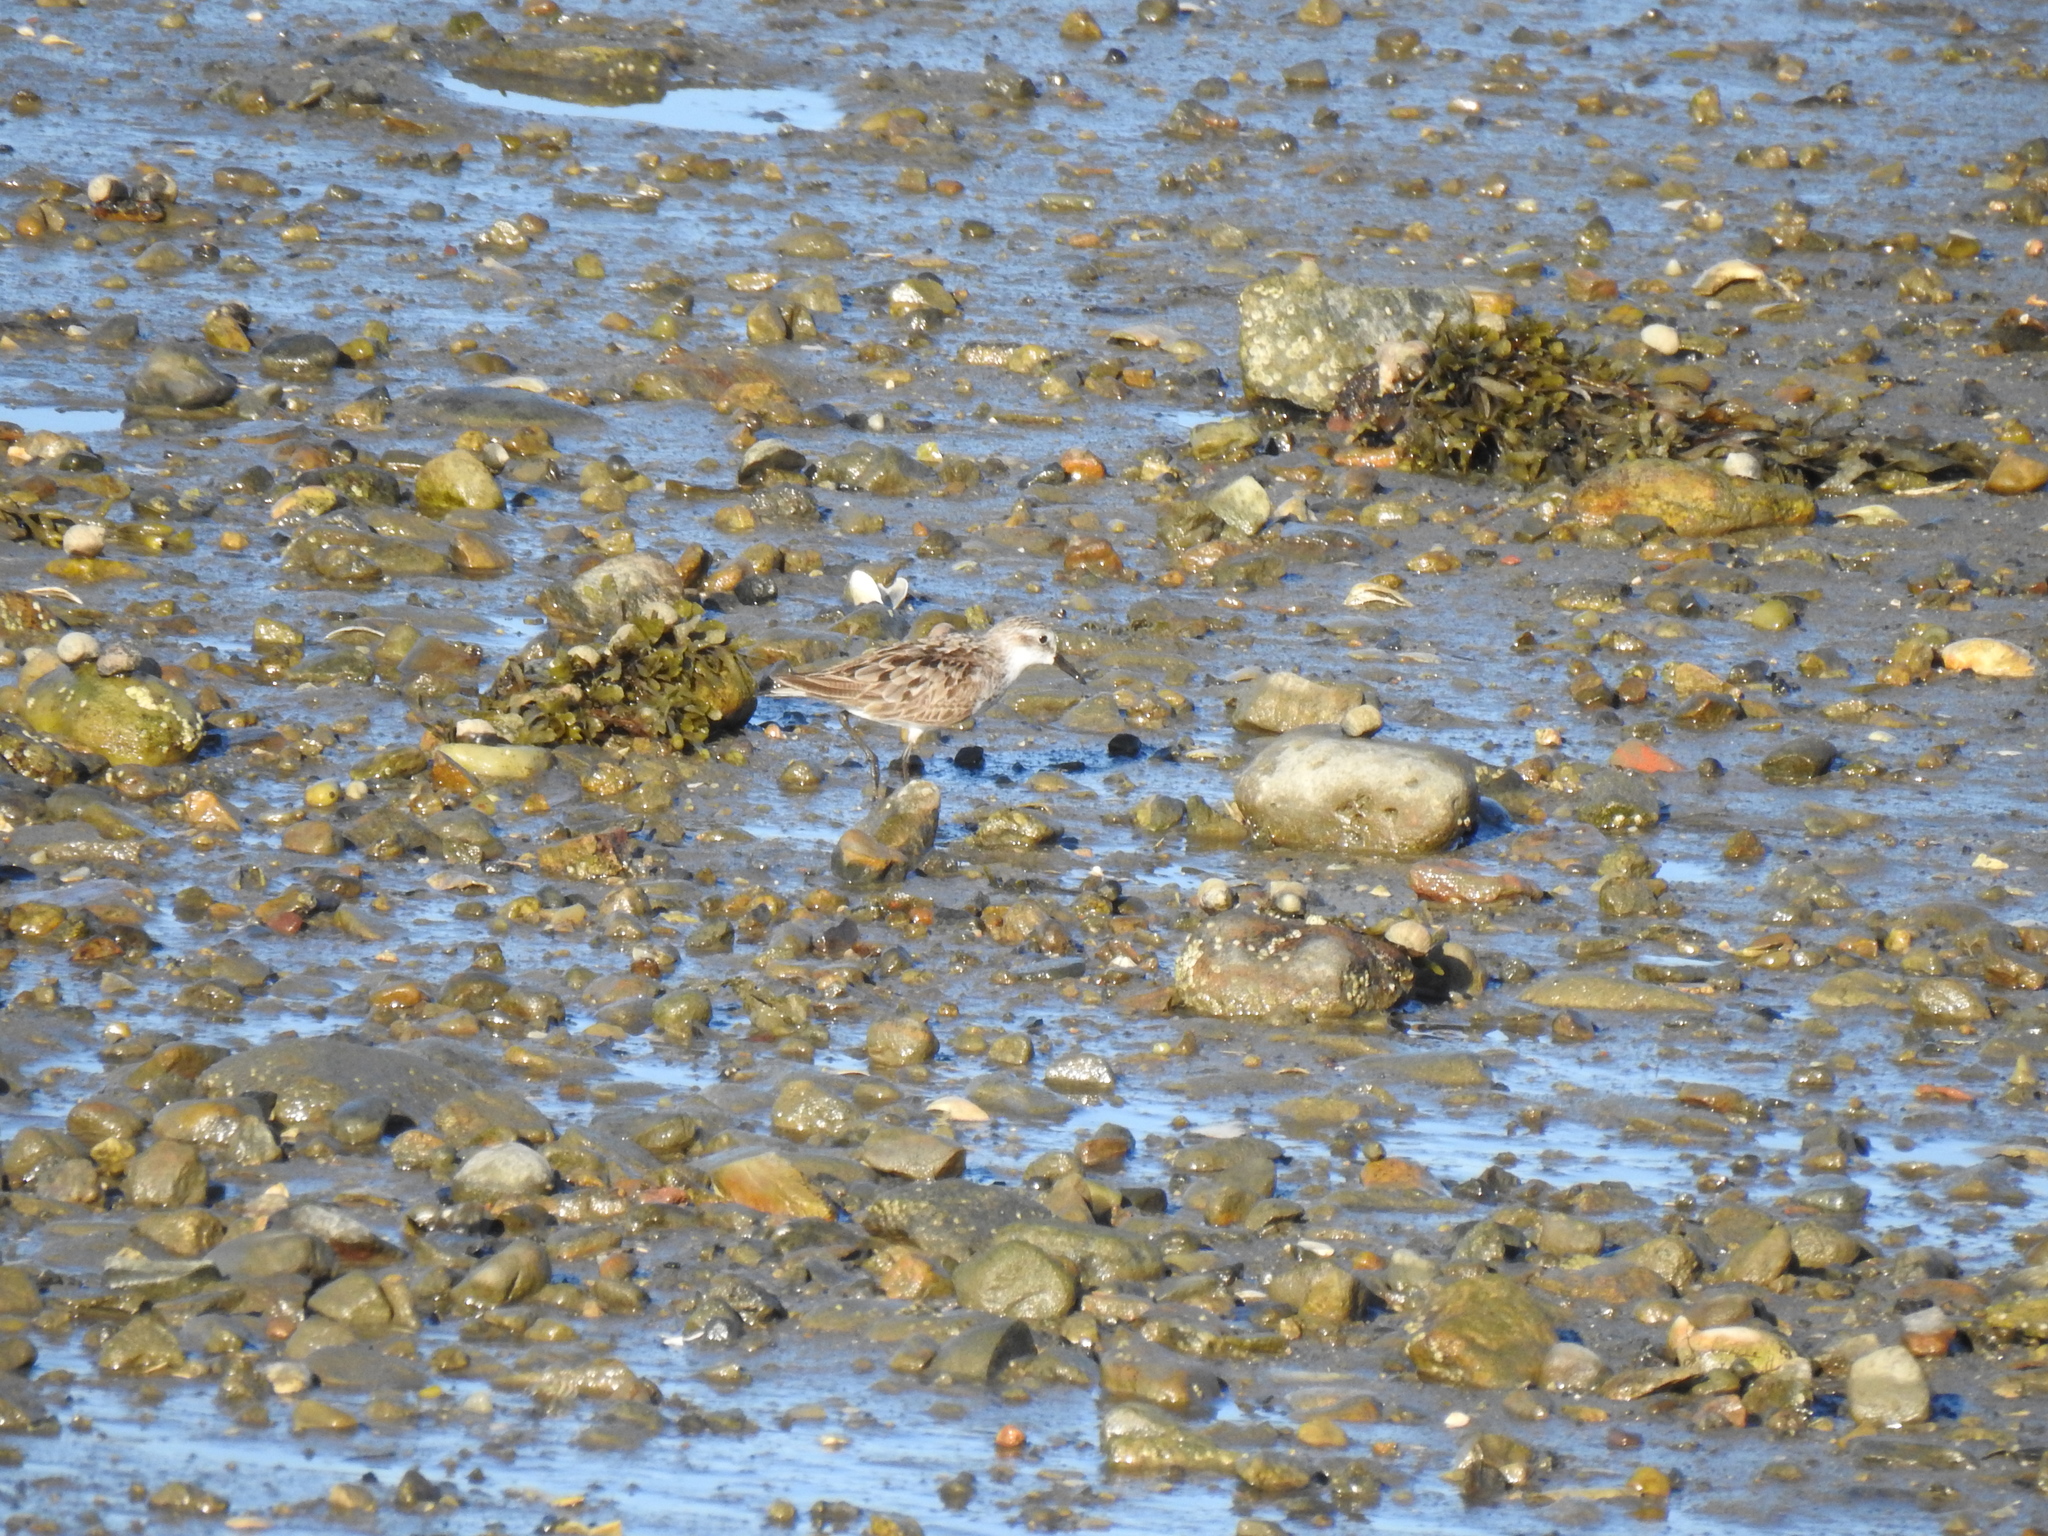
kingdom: Animalia
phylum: Chordata
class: Aves
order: Charadriiformes
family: Scolopacidae
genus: Calidris
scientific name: Calidris pusilla
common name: Semipalmated sandpiper
